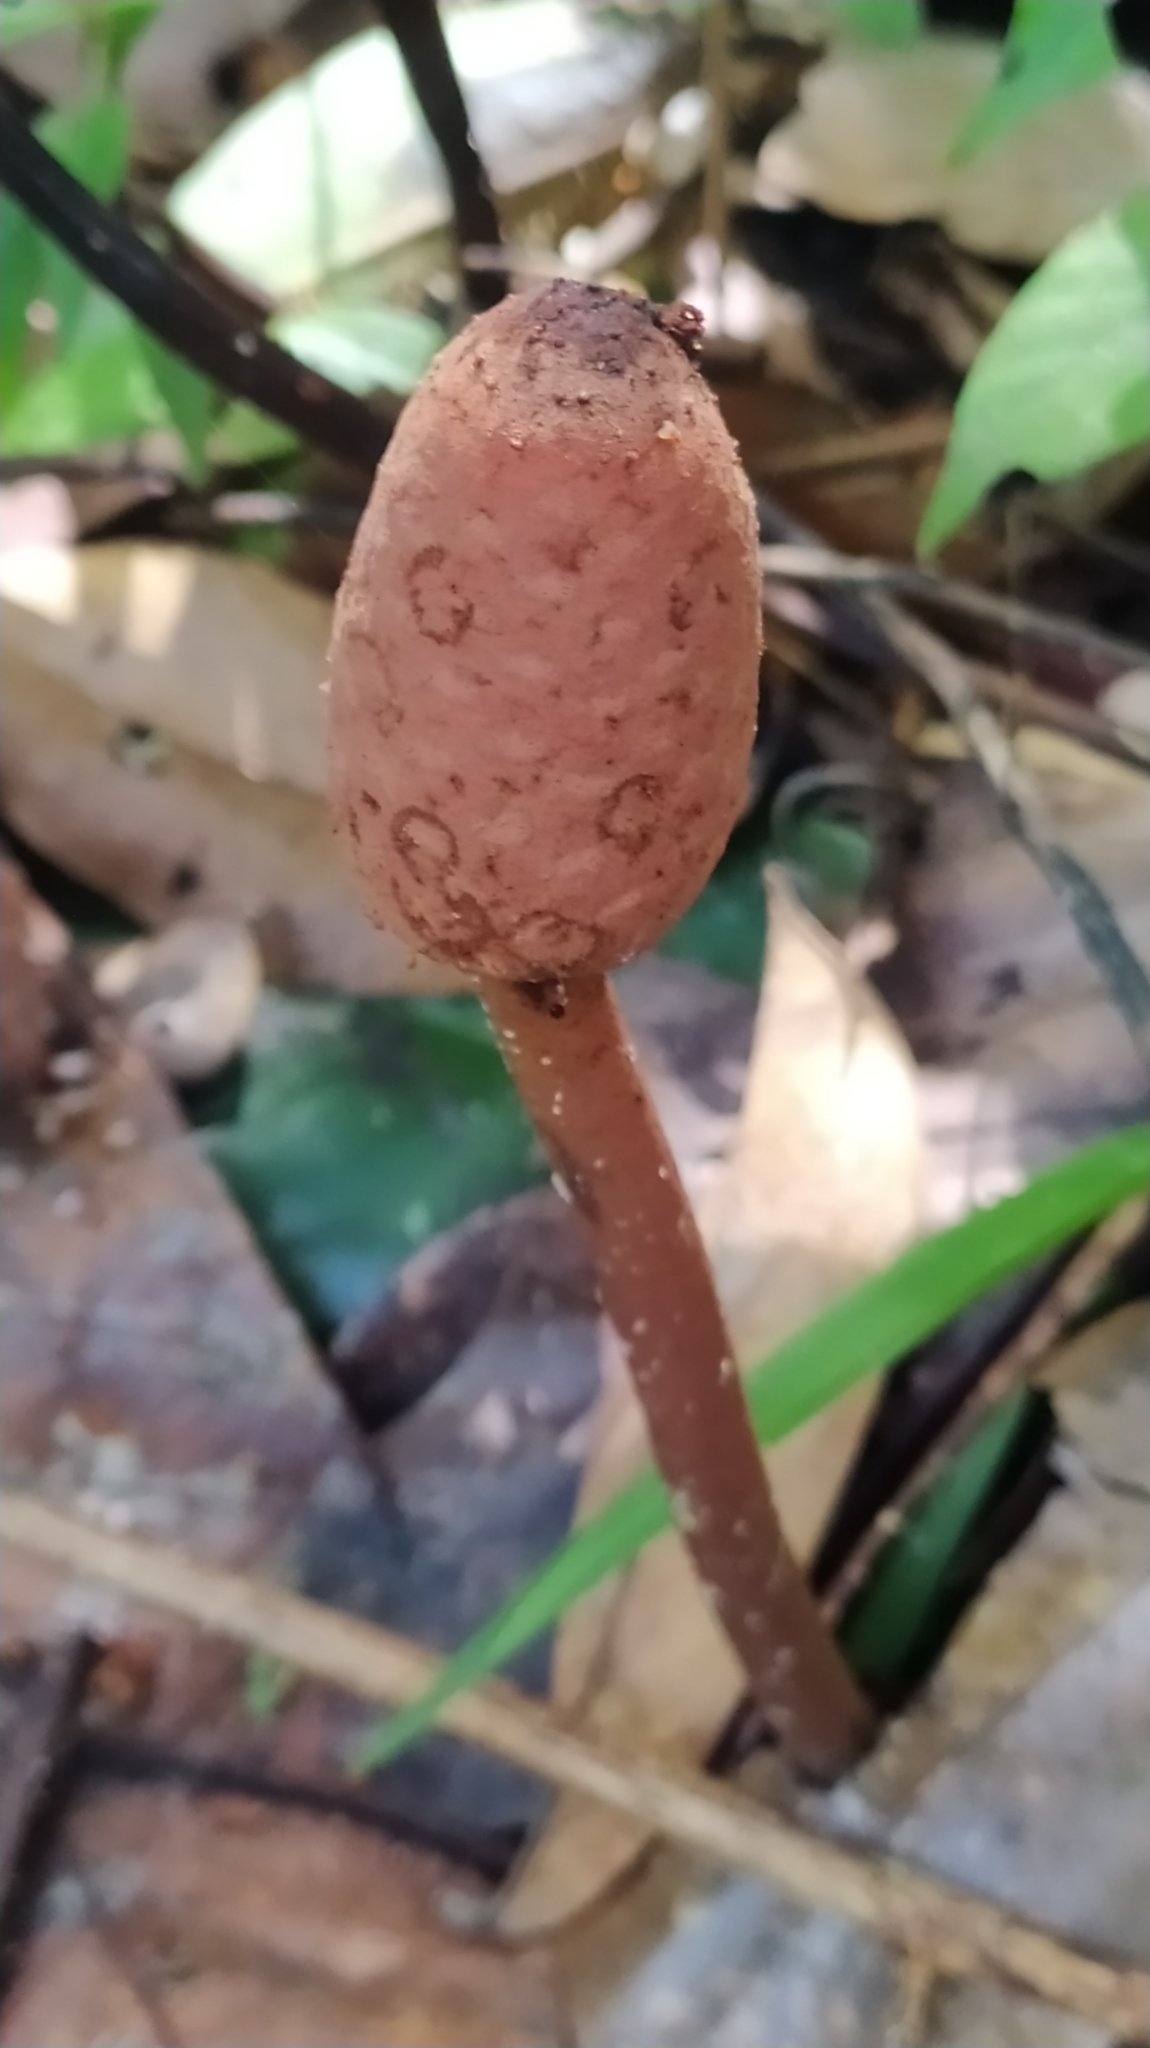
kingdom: Plantae
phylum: Tracheophyta
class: Magnoliopsida
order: Santalales
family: Balanophoraceae
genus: Helosis
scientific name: Helosis cayennensis
